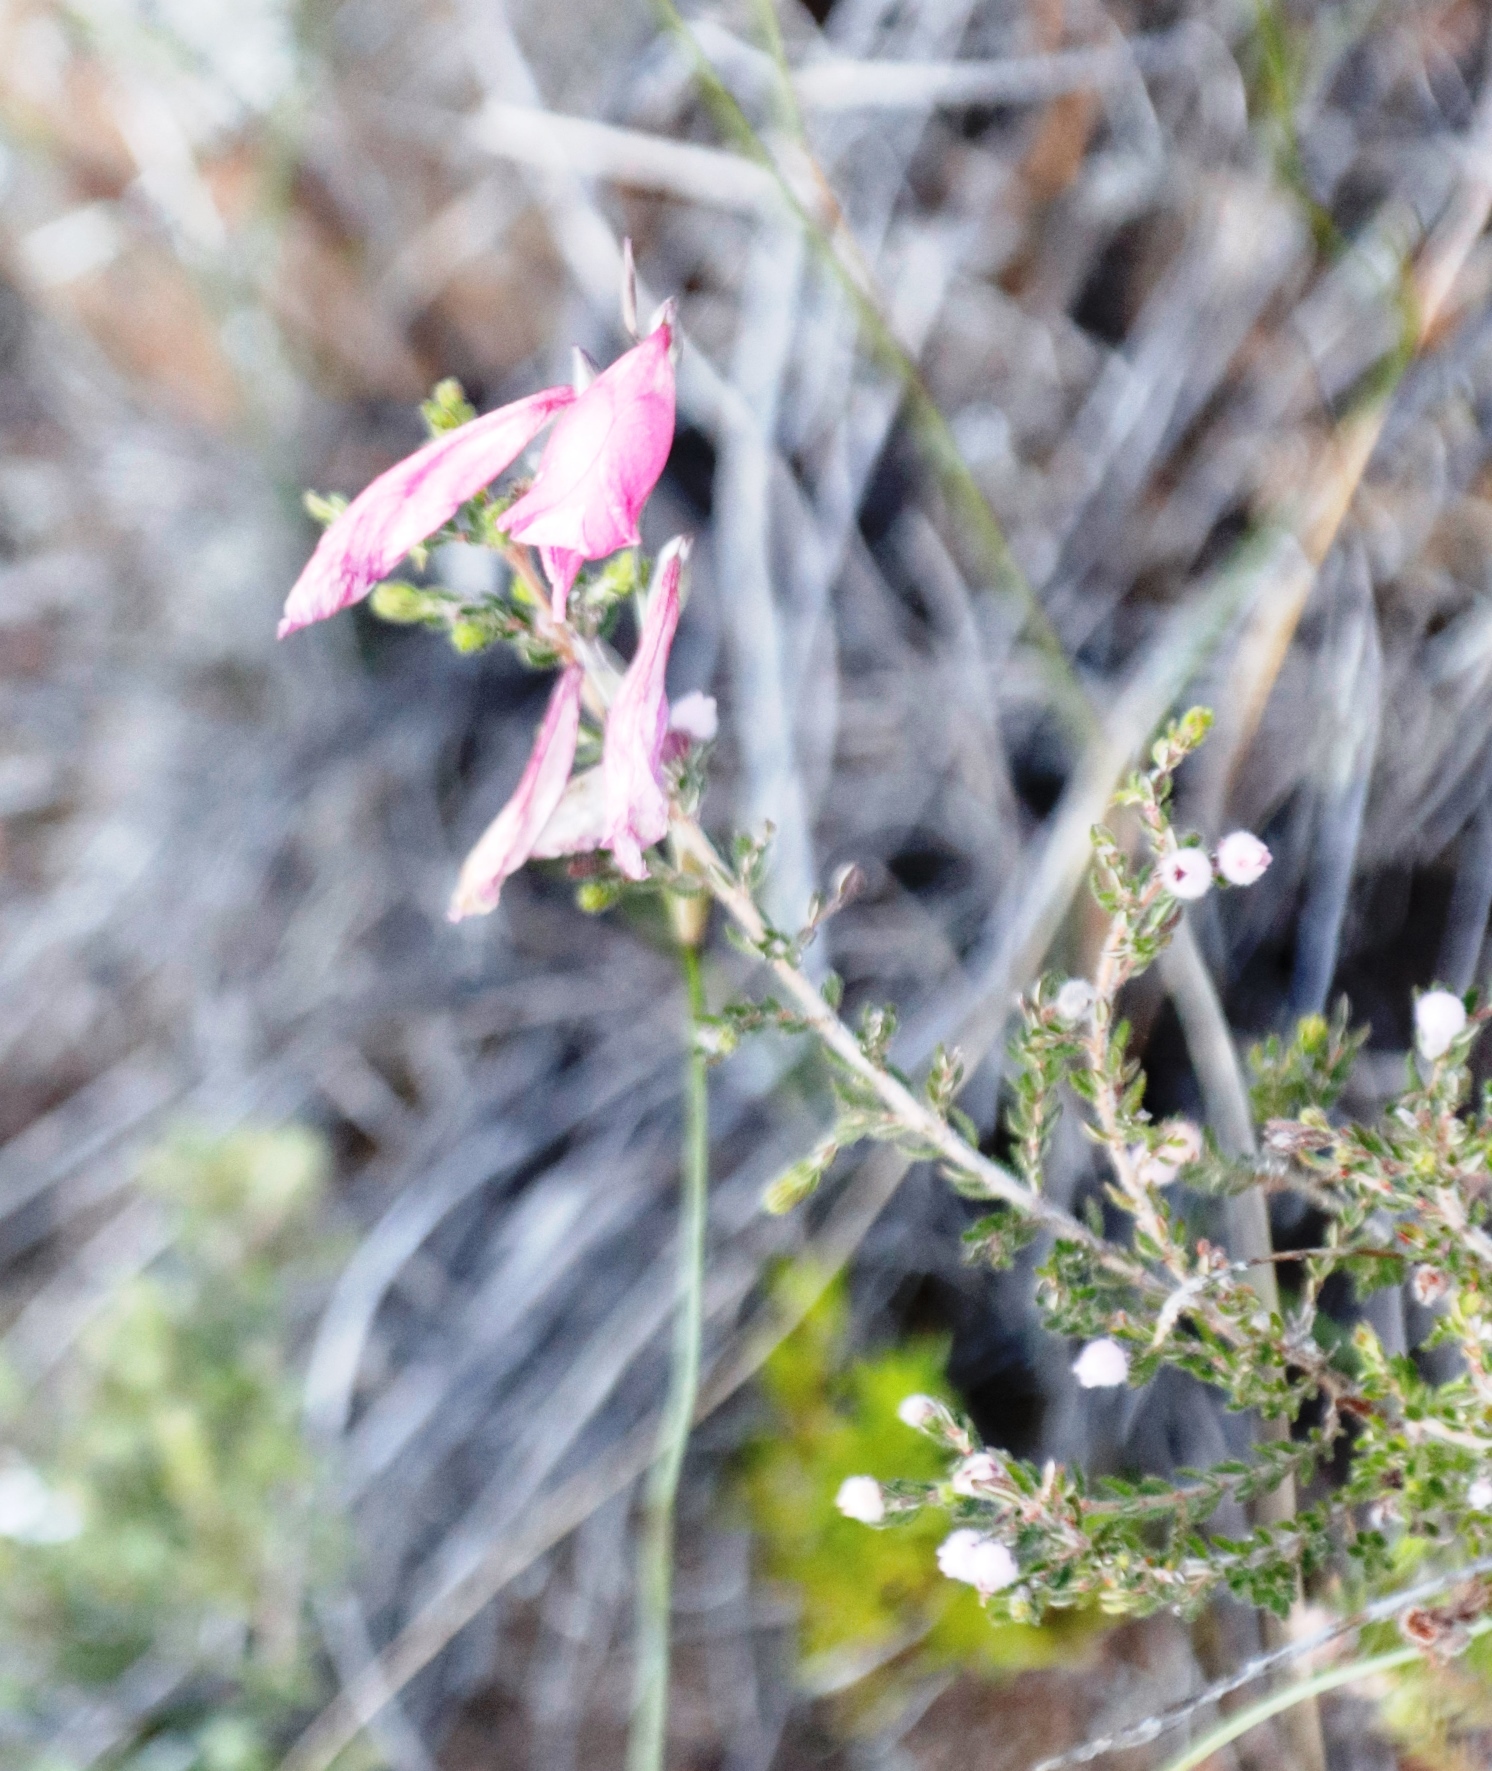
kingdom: Plantae
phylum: Tracheophyta
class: Liliopsida
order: Asparagales
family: Iridaceae
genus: Gladiolus
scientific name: Gladiolus brevifolius
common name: March pypie
